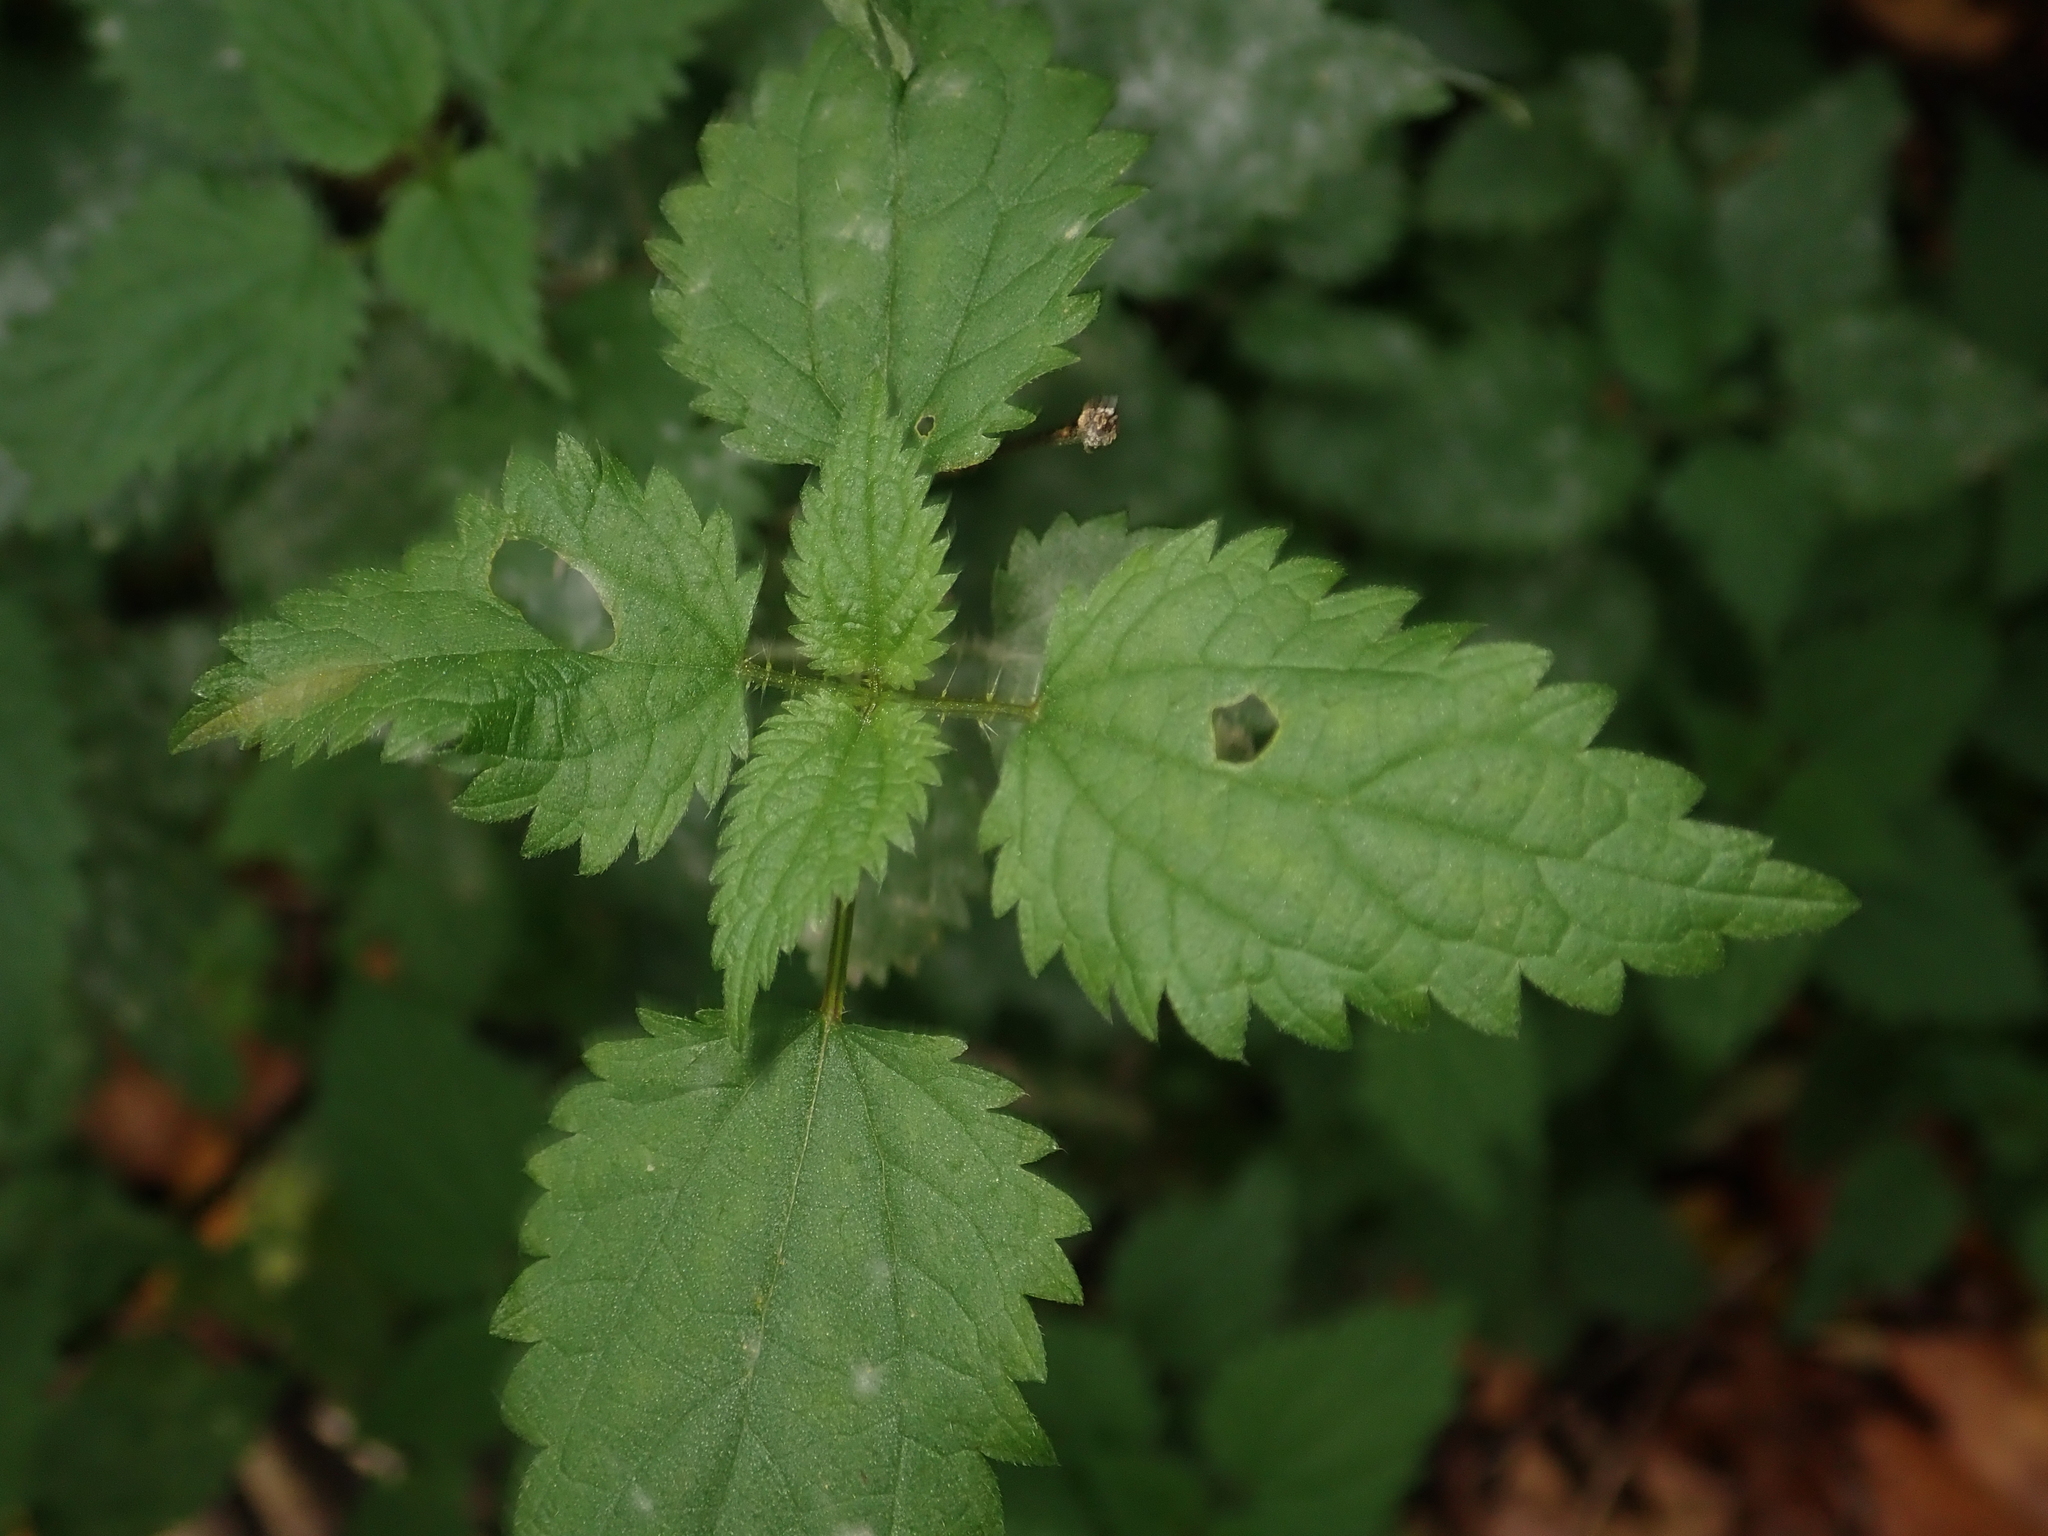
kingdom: Plantae
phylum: Tracheophyta
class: Magnoliopsida
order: Rosales
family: Urticaceae
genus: Urtica
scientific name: Urtica dioica
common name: Common nettle
